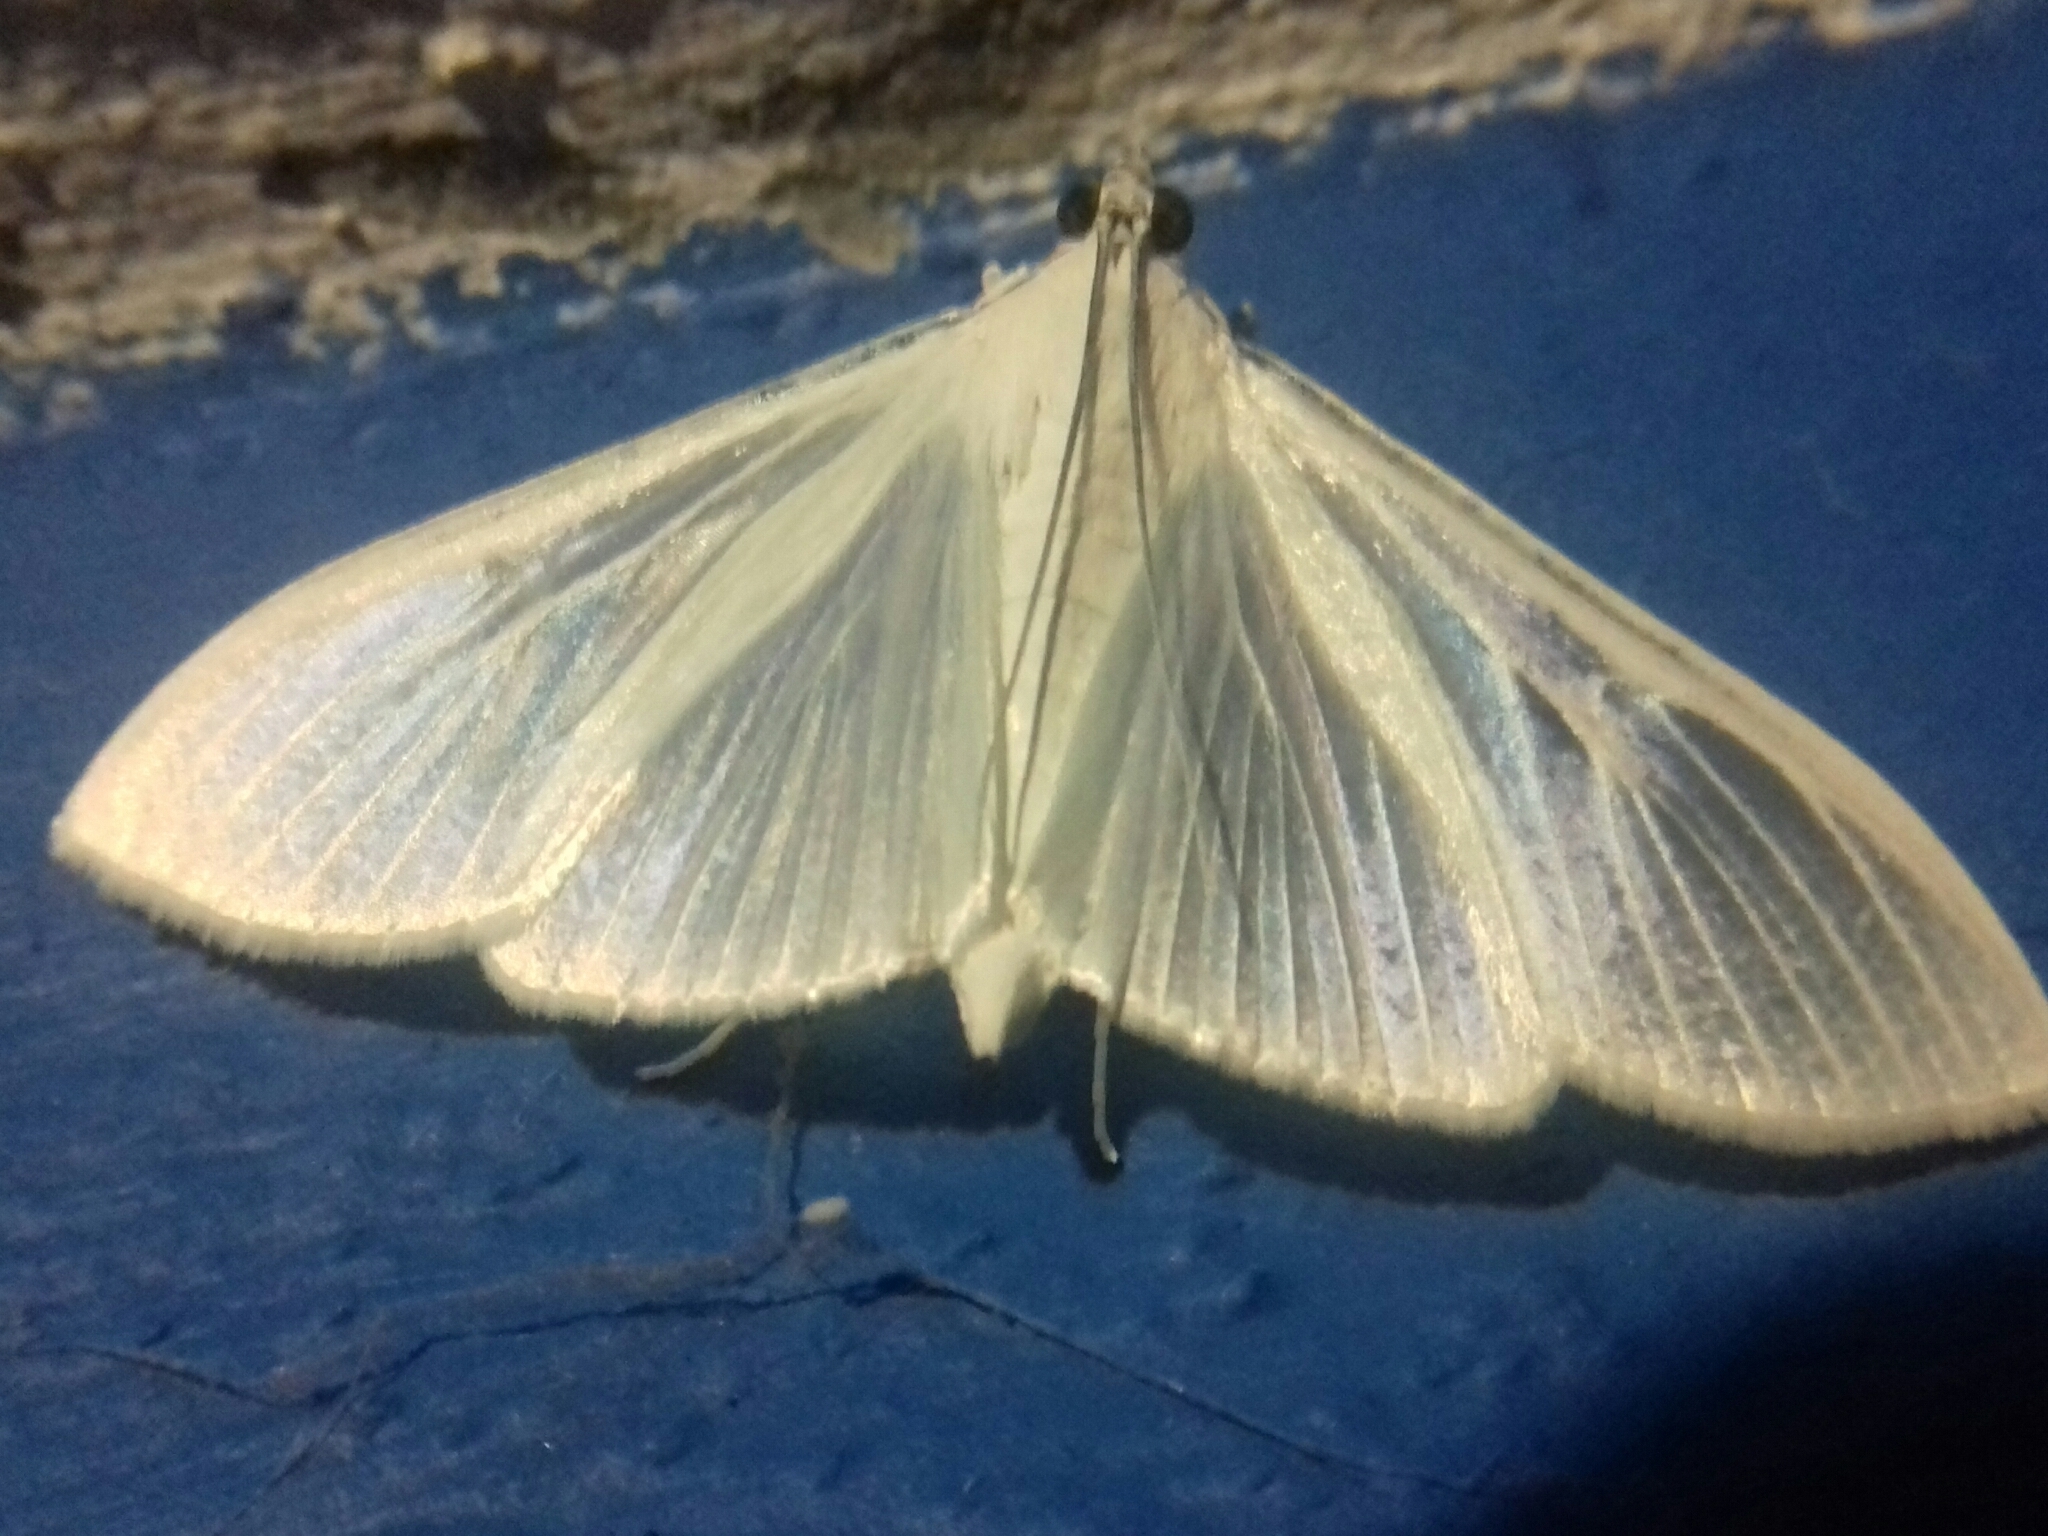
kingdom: Animalia
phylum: Arthropoda
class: Insecta
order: Lepidoptera
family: Crambidae
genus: Palpita
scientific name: Palpita flegia
